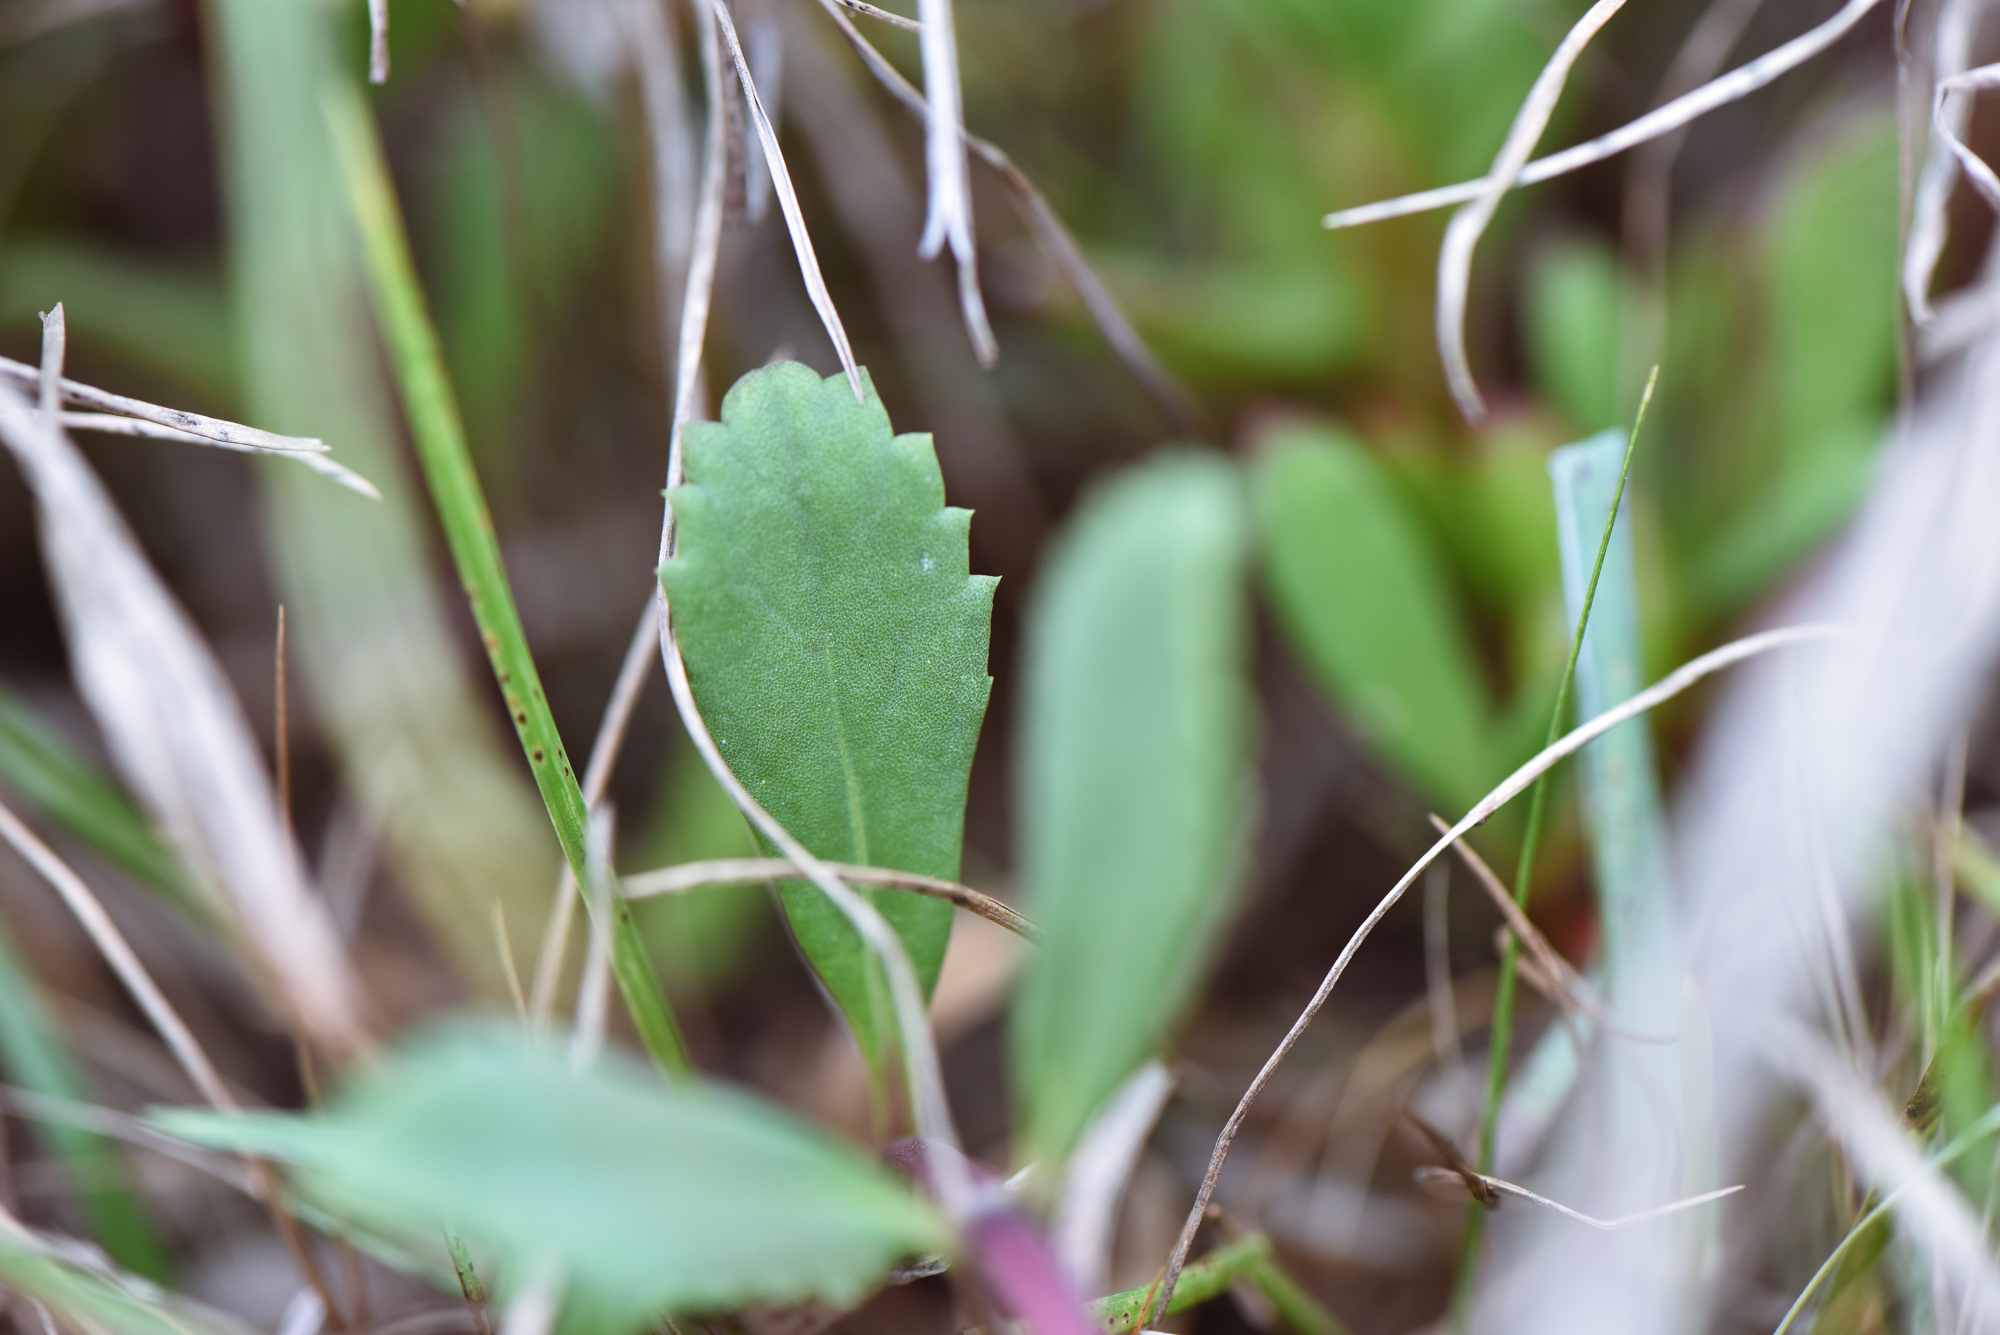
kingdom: Plantae
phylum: Tracheophyta
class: Magnoliopsida
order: Lamiales
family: Verbenaceae
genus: Phyla
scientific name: Phyla nodiflora
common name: Frogfruit
